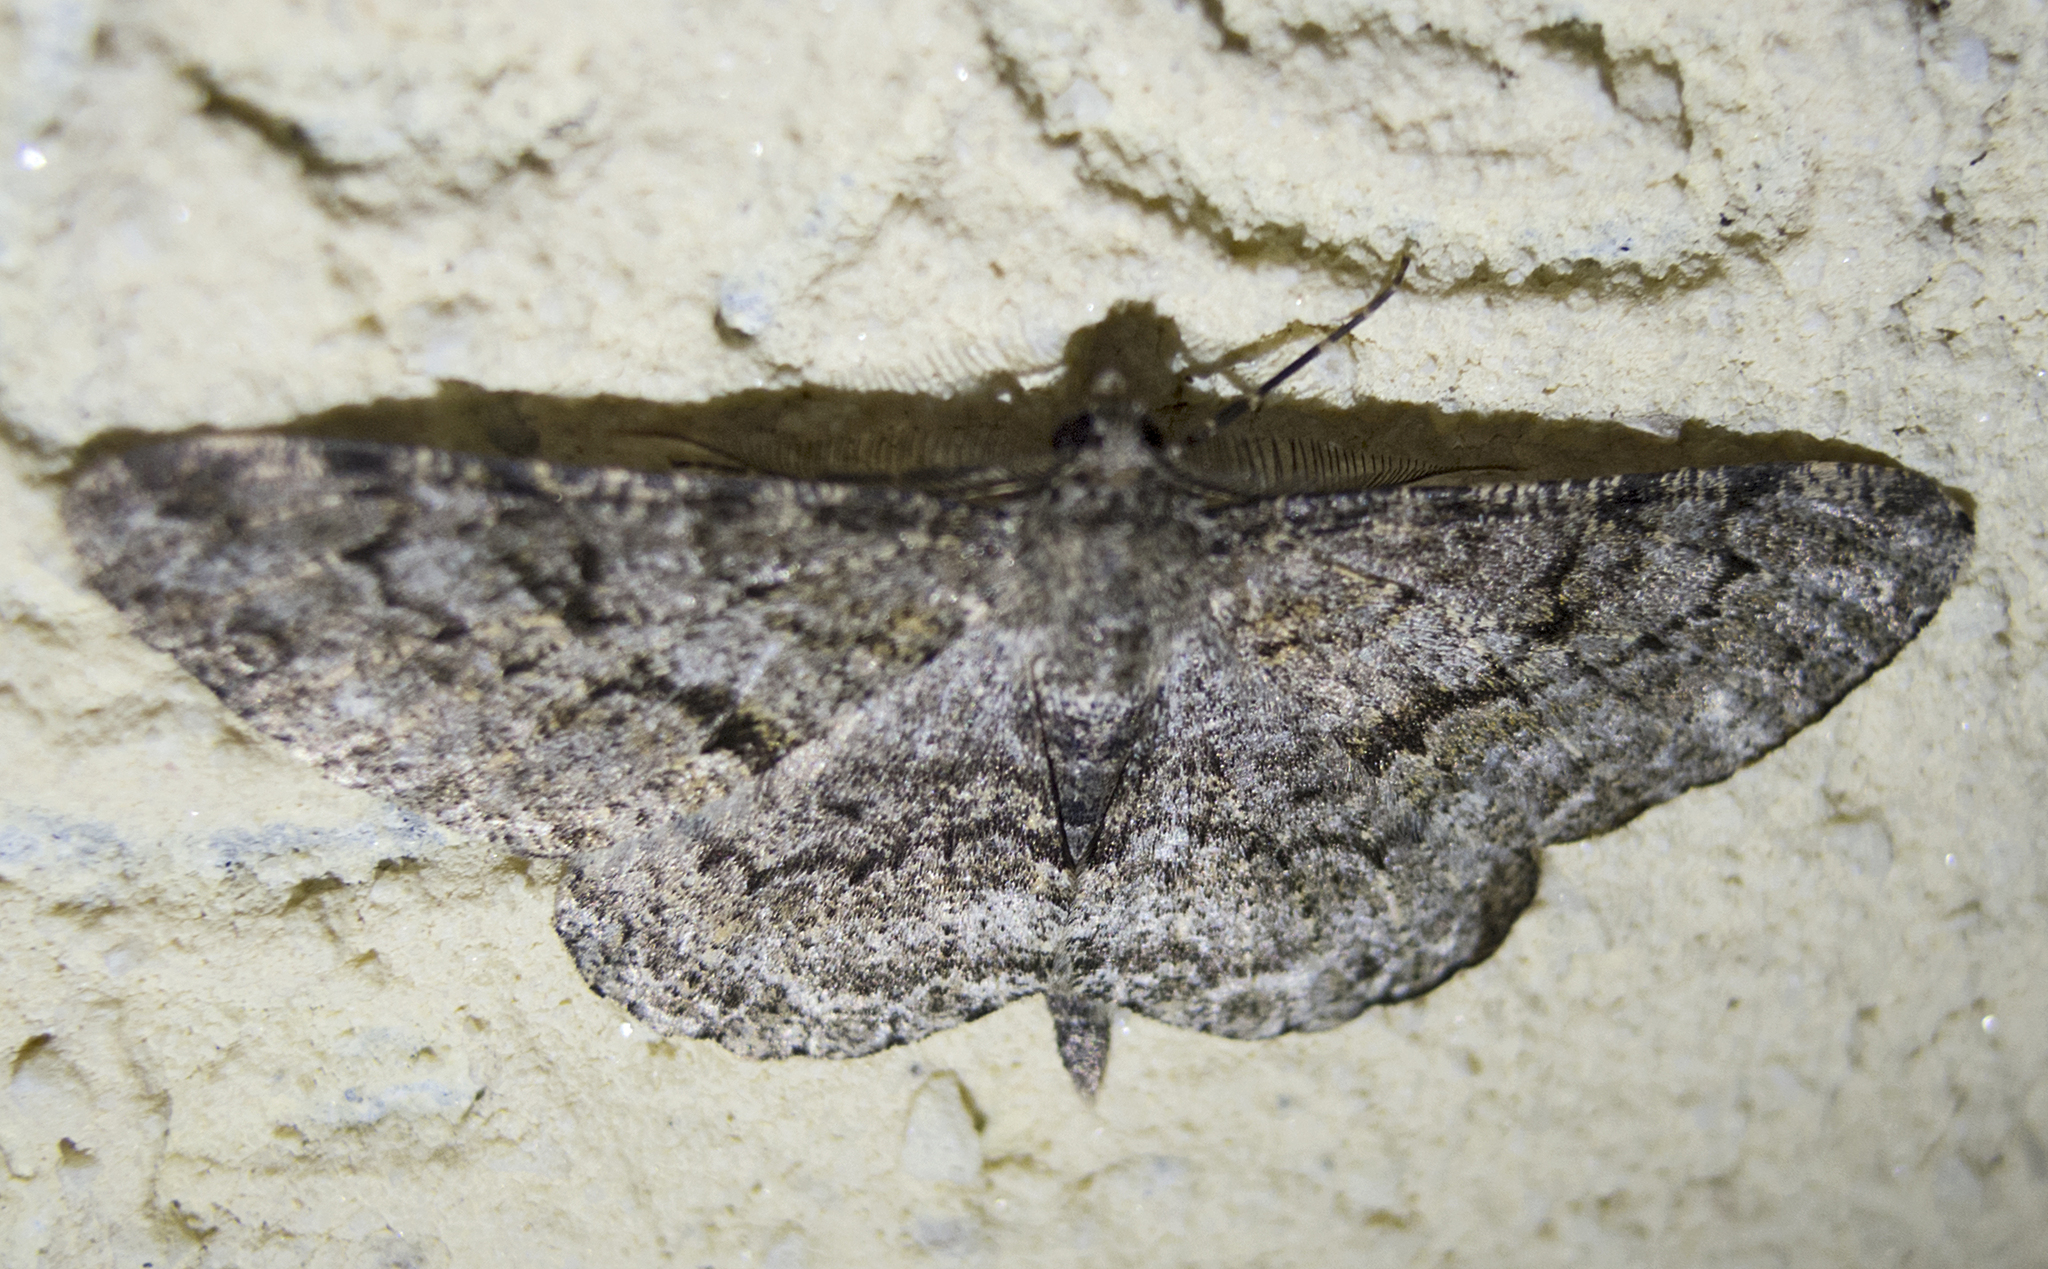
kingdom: Animalia
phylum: Arthropoda
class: Insecta
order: Lepidoptera
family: Geometridae
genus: Peribatodes
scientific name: Peribatodes rhomboidaria
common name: Willow beauty
